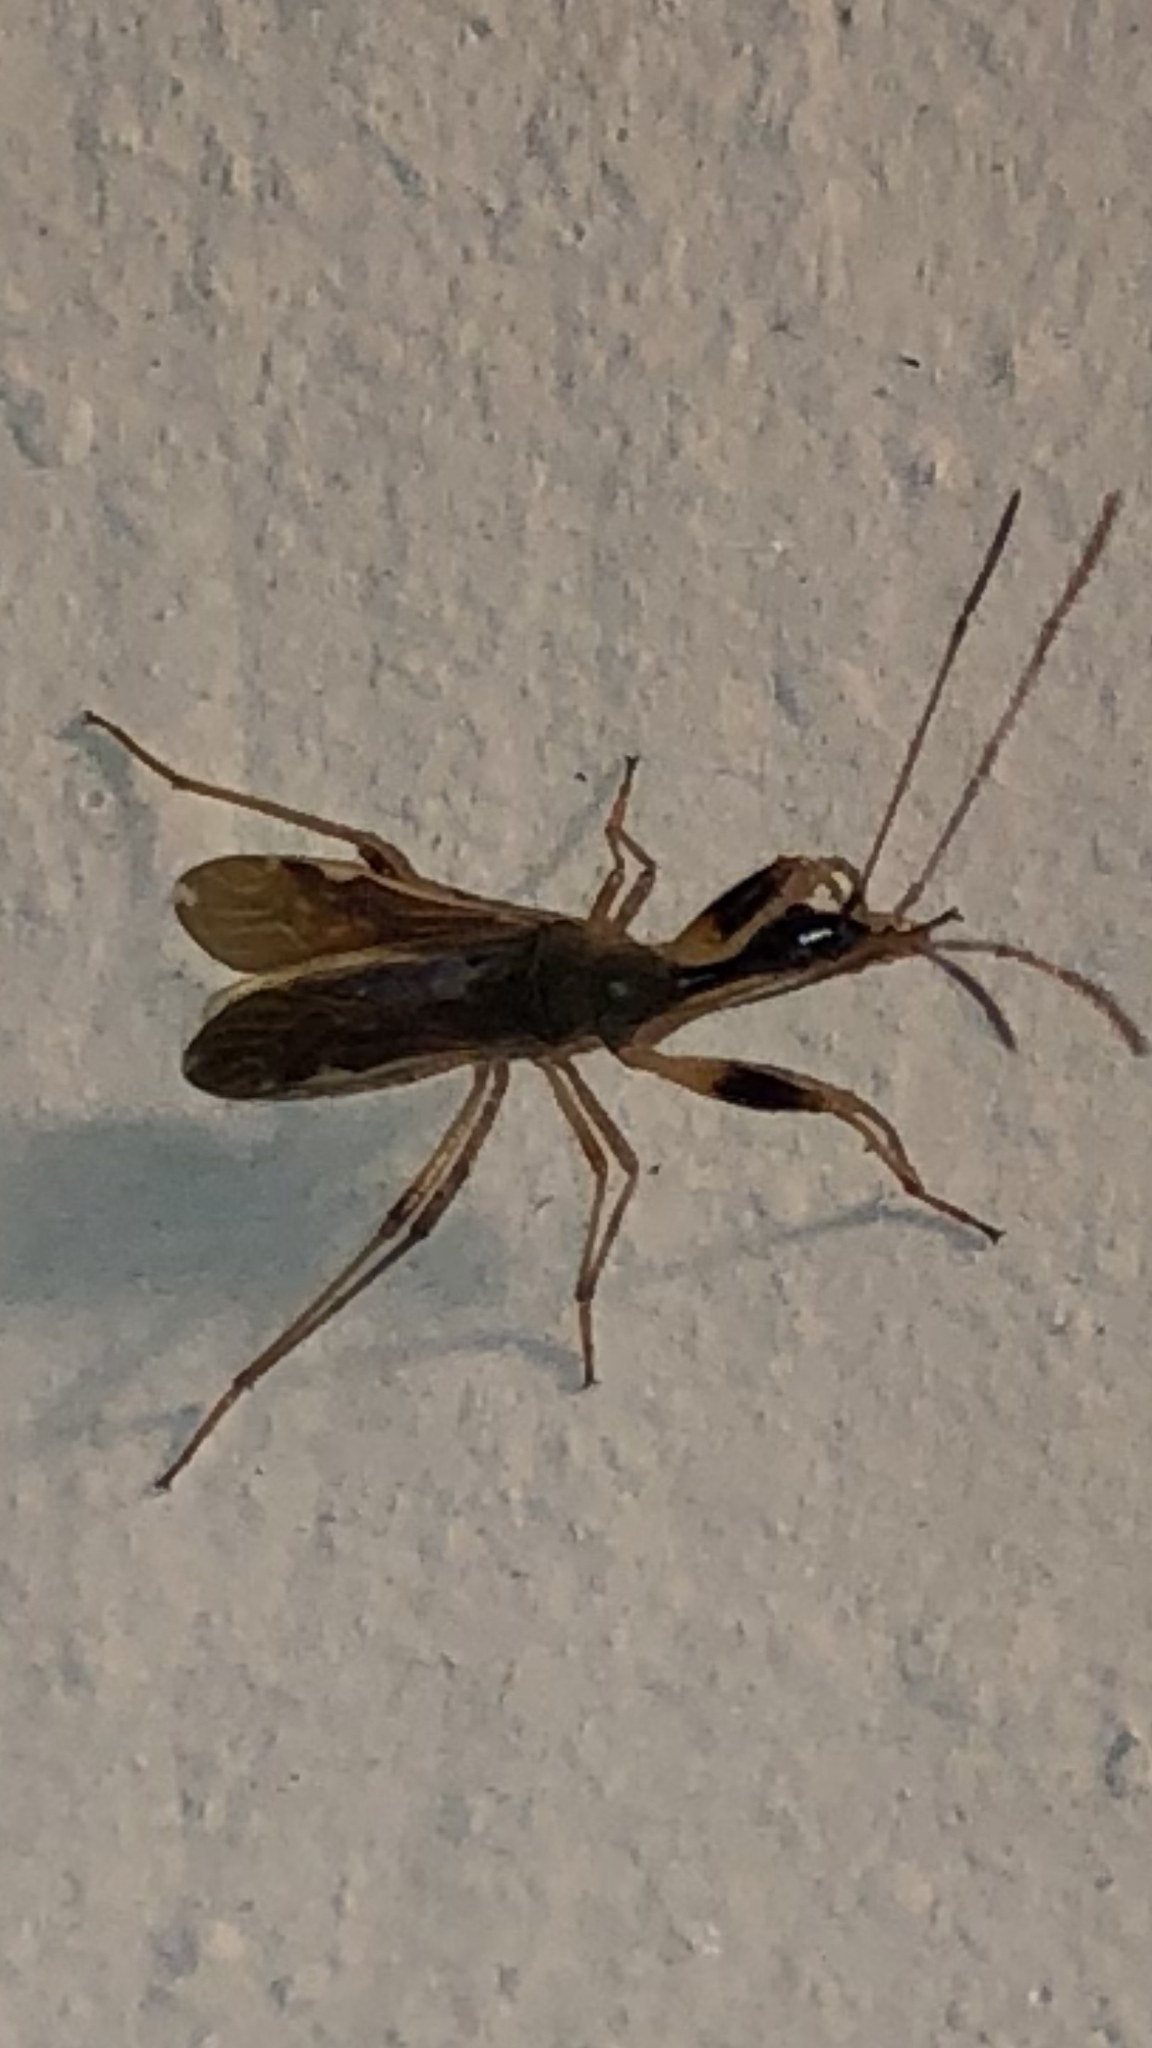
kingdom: Animalia
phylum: Arthropoda
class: Insecta
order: Hemiptera
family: Rhyparochromidae
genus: Myodocha
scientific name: Myodocha serripes
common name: Long-necked seed bug
